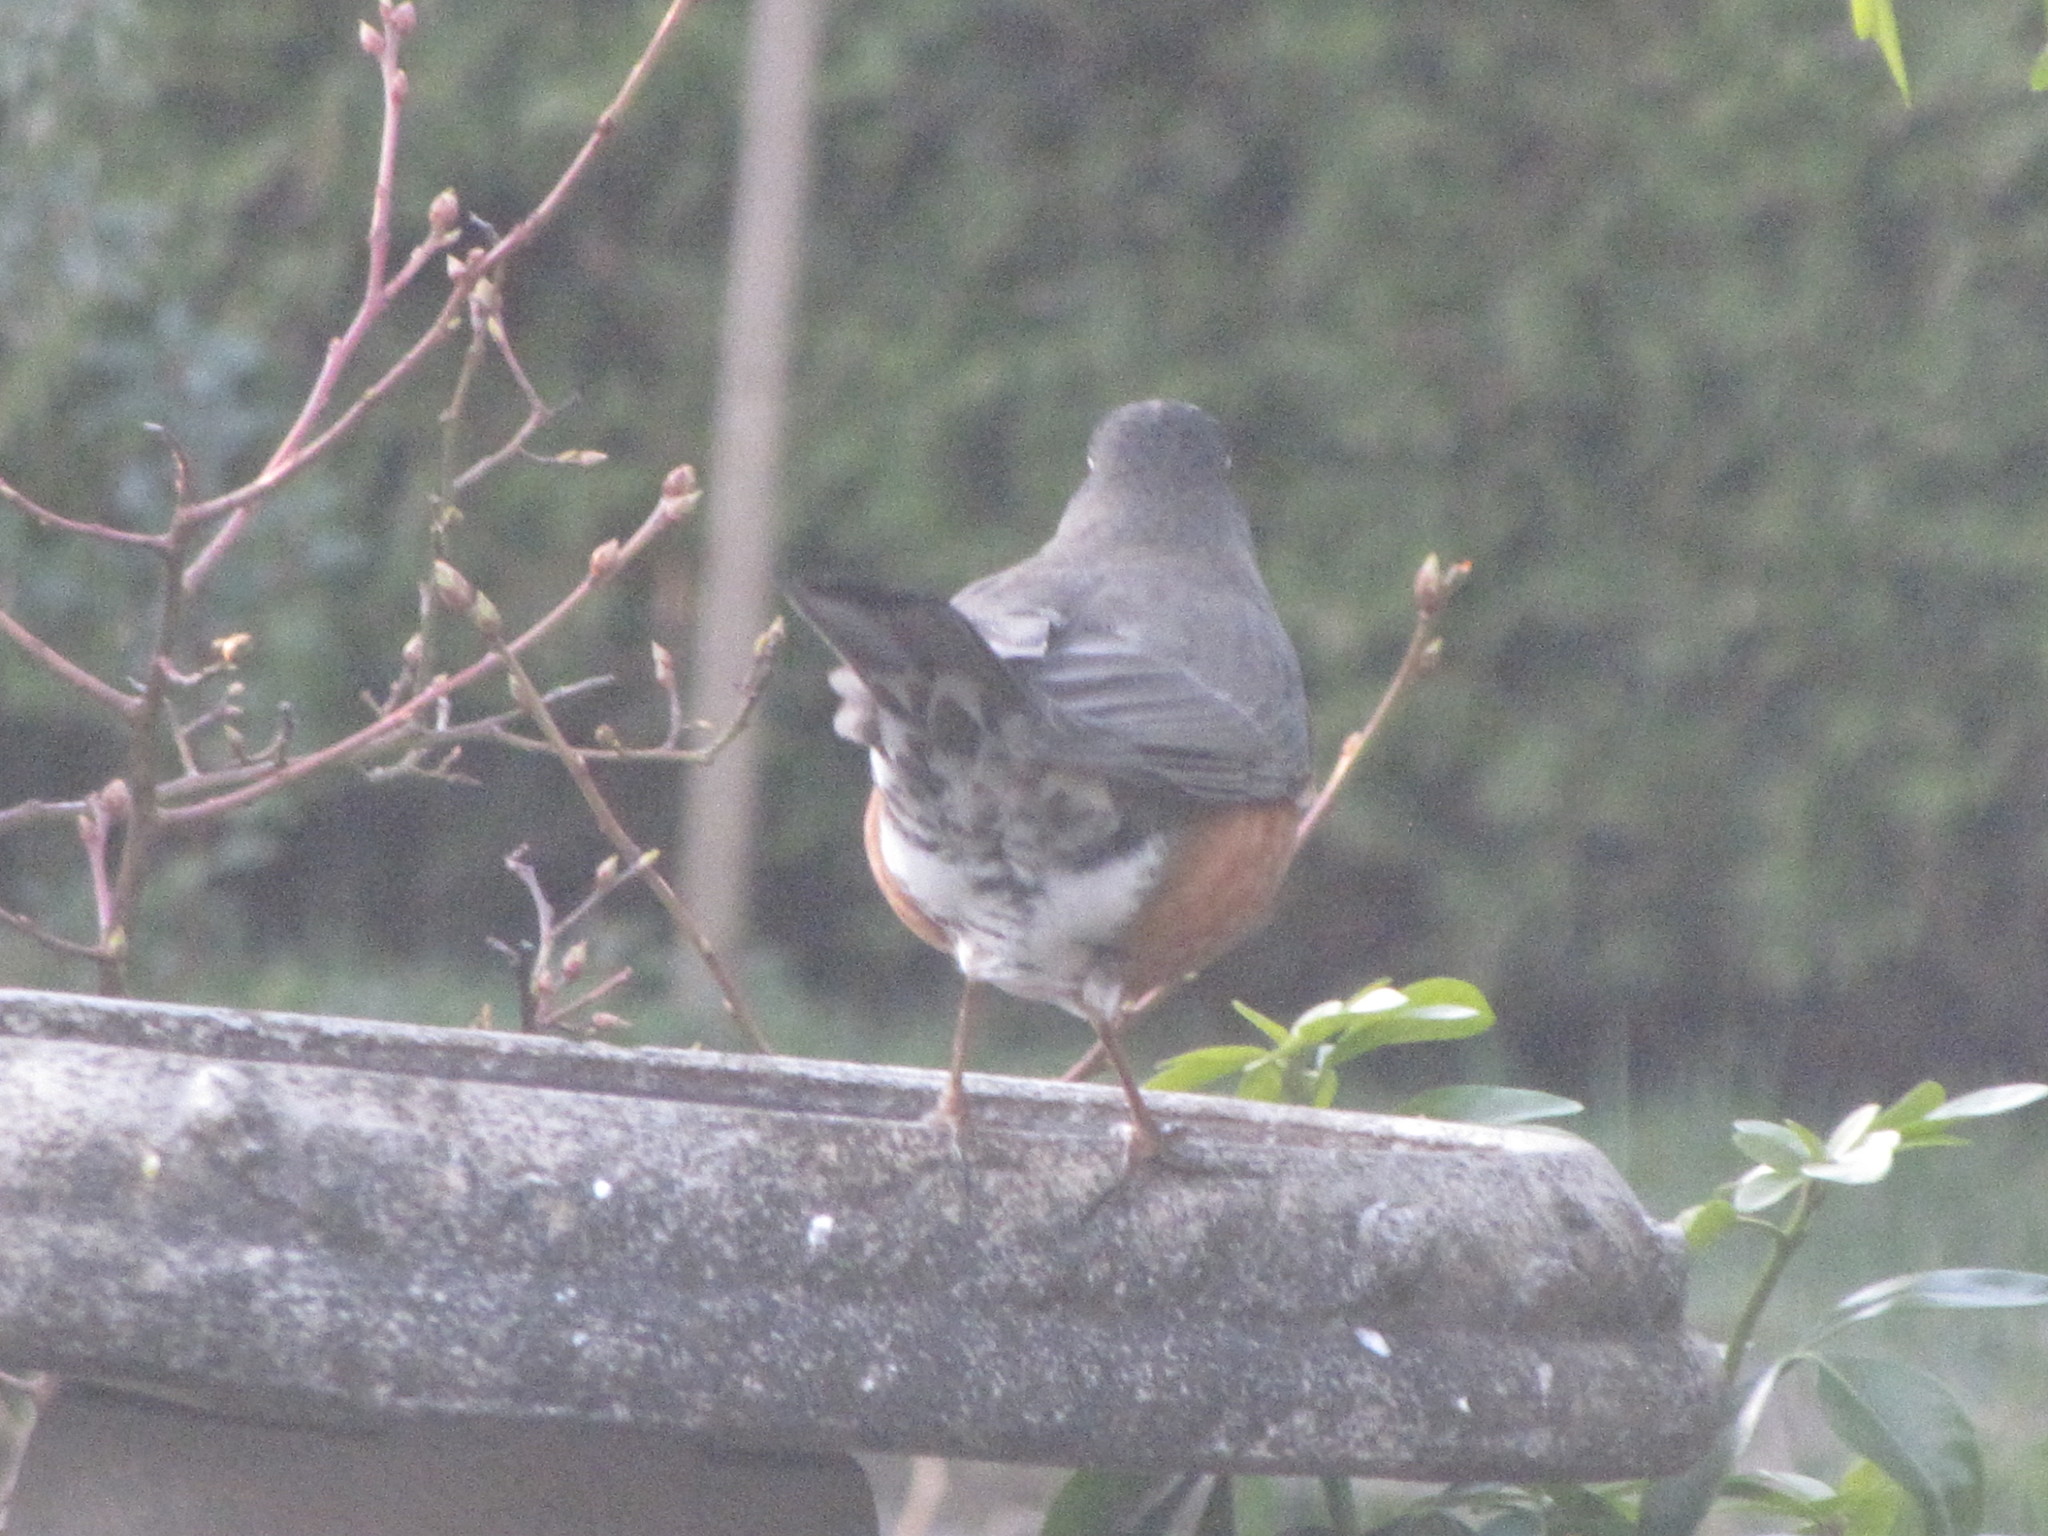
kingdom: Animalia
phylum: Chordata
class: Aves
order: Passeriformes
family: Turdidae
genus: Turdus
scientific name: Turdus migratorius
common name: American robin
